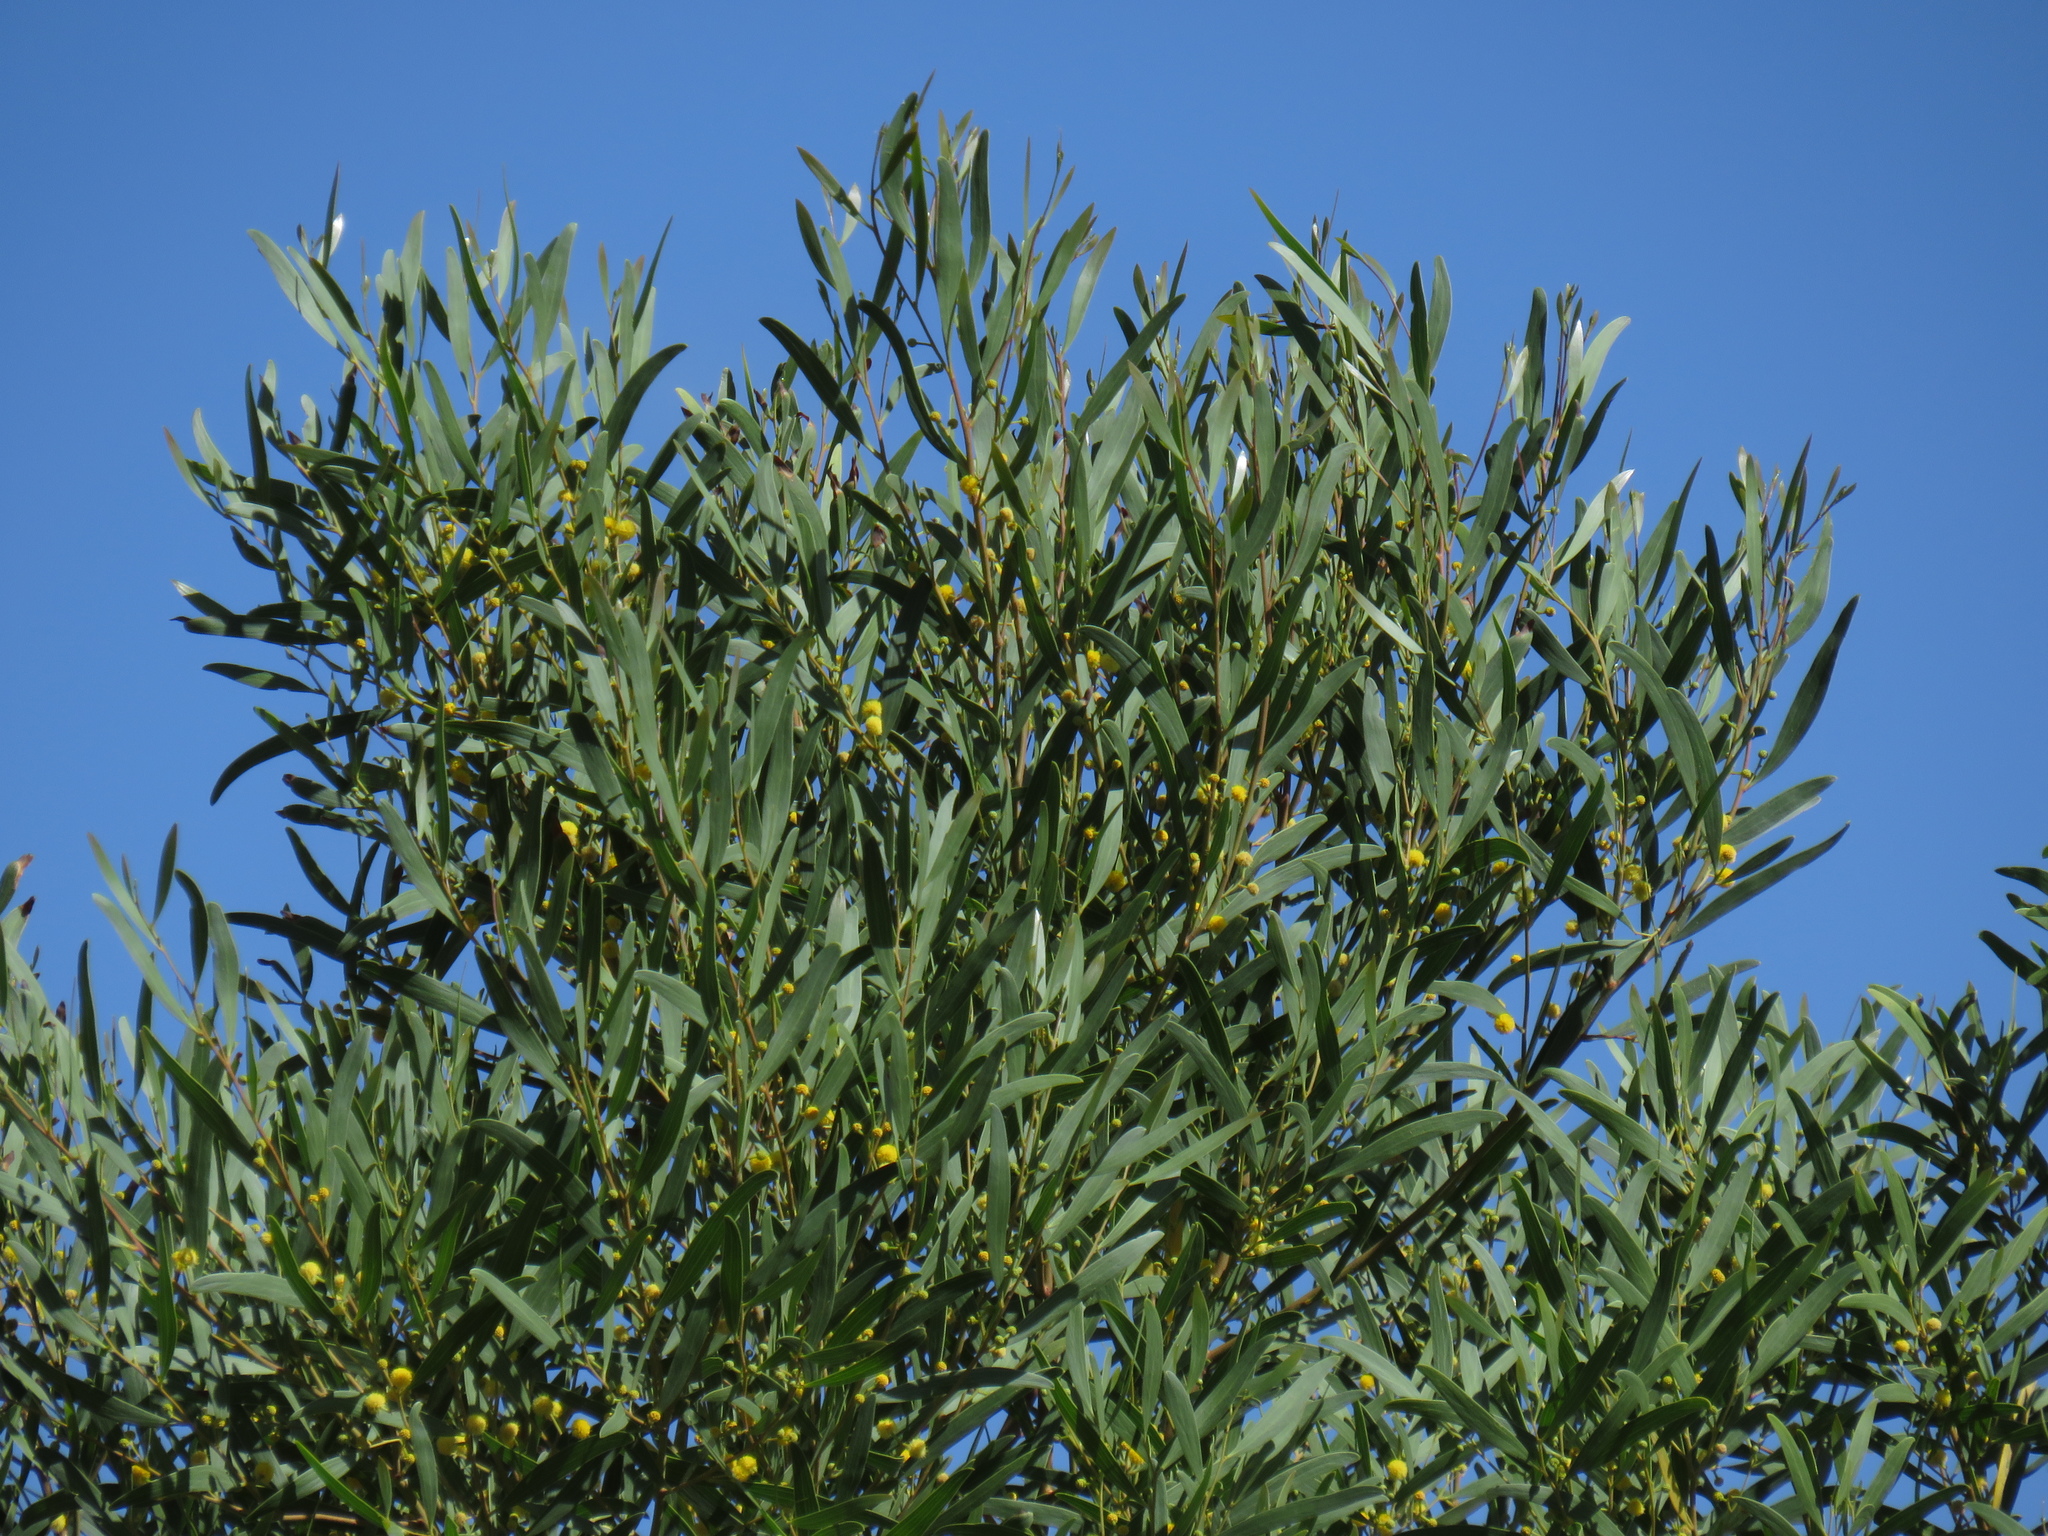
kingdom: Plantae
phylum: Tracheophyta
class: Magnoliopsida
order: Fabales
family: Fabaceae
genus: Acacia
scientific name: Acacia cyclops
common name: Coastal wattle
